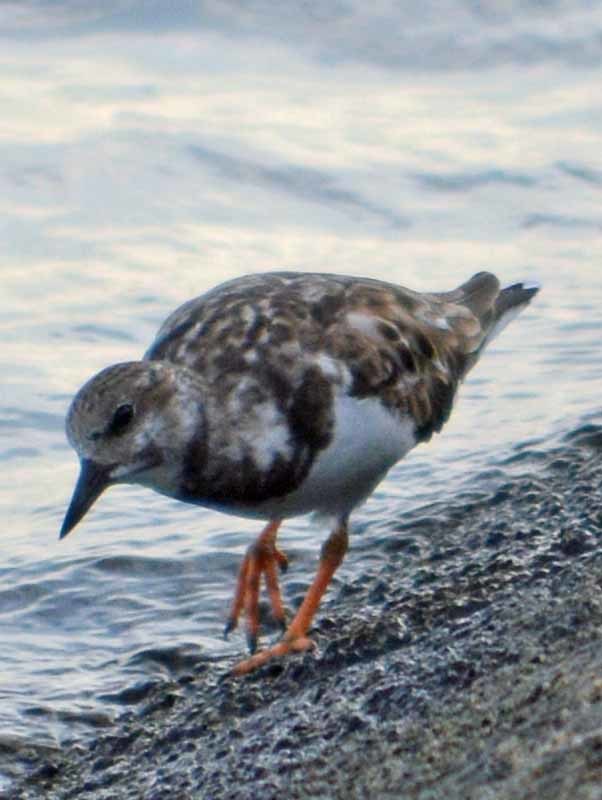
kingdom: Animalia
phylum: Chordata
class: Aves
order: Charadriiformes
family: Scolopacidae
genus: Arenaria
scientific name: Arenaria interpres
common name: Ruddy turnstone
